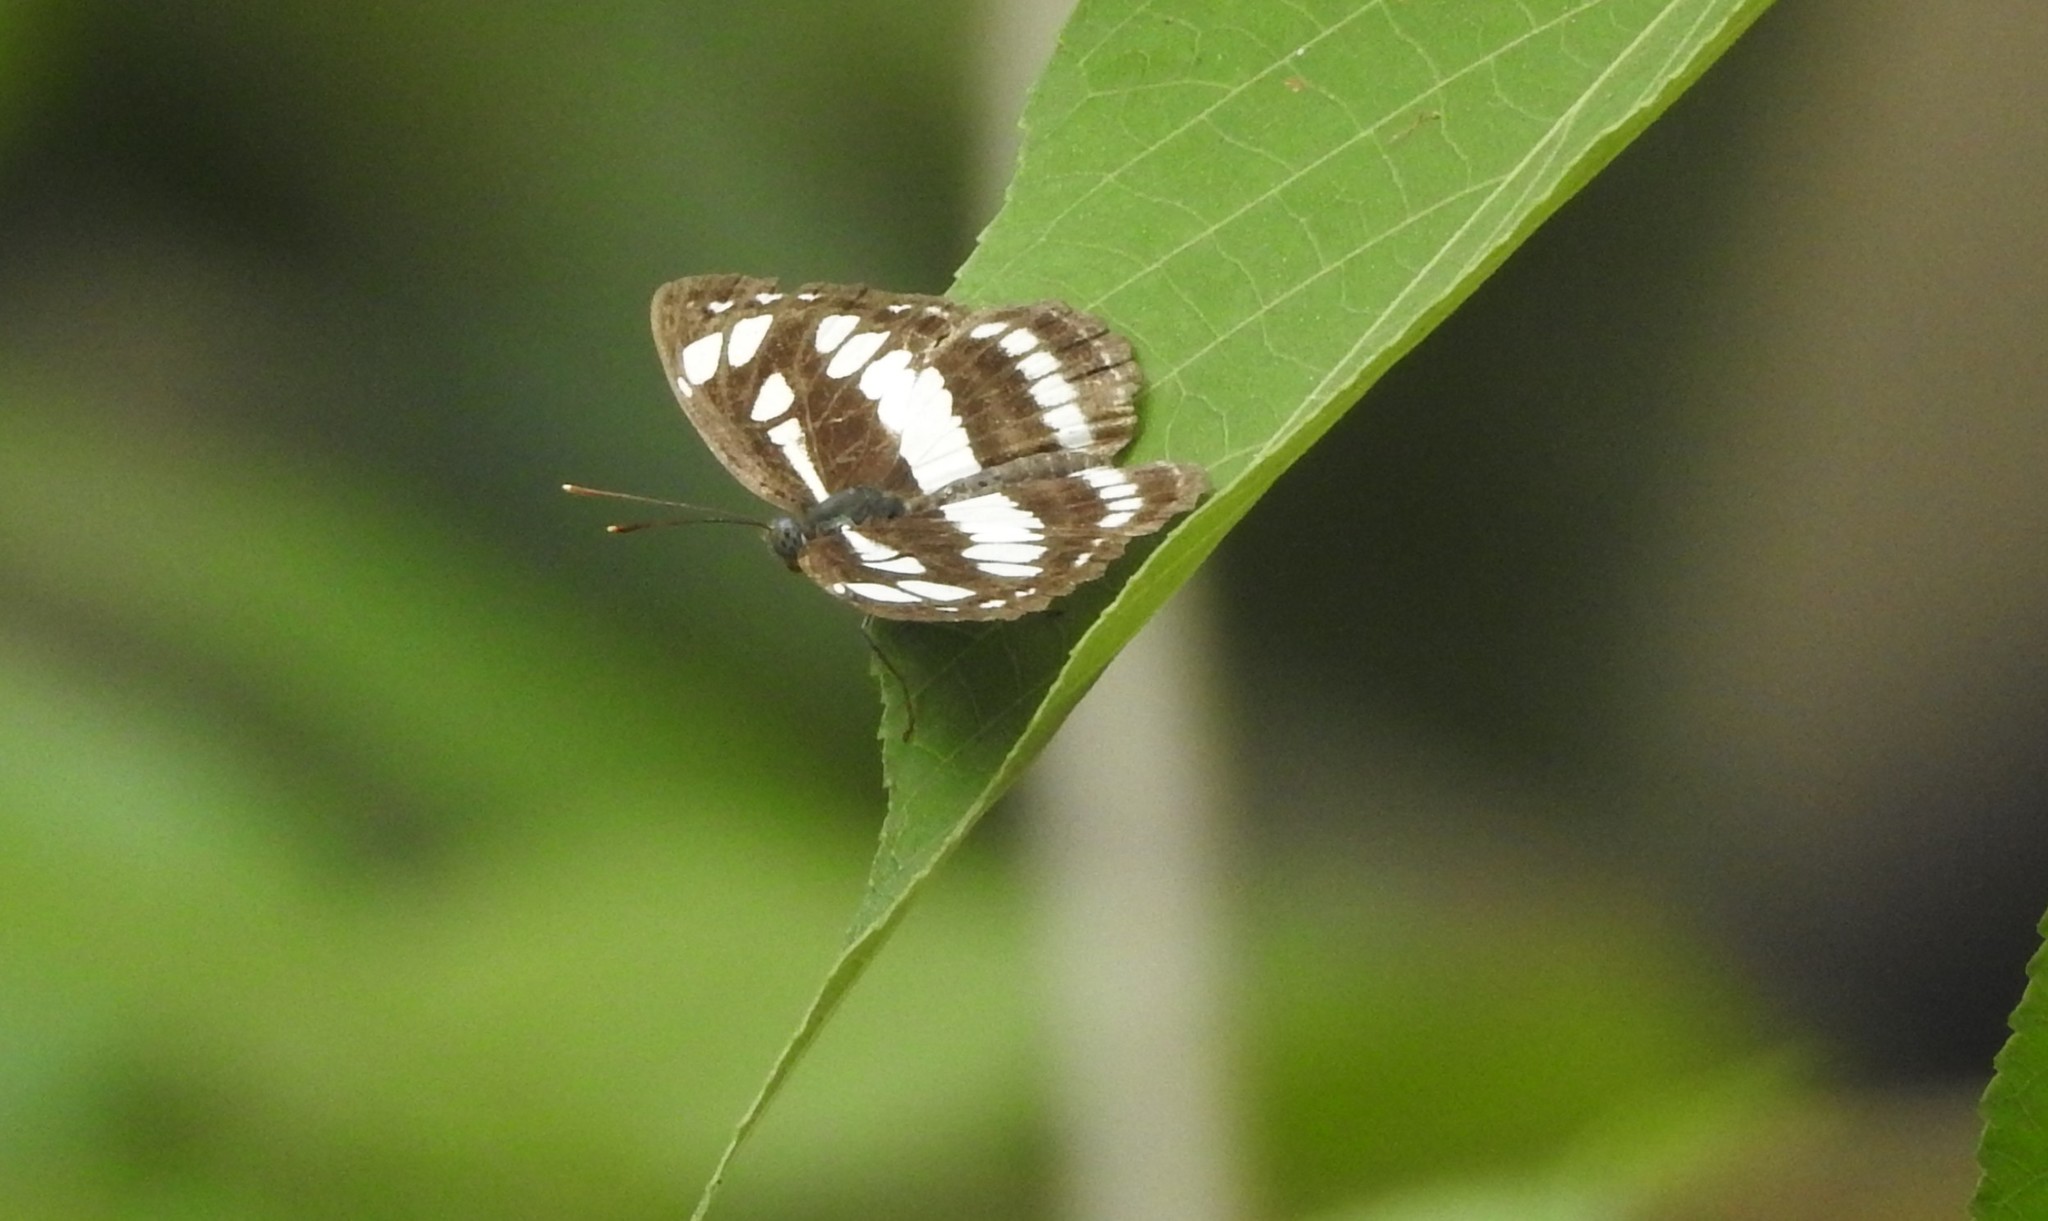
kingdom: Animalia
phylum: Arthropoda
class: Insecta
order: Lepidoptera
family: Nymphalidae
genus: Neptis
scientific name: Neptis hylas
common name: Common sailer
